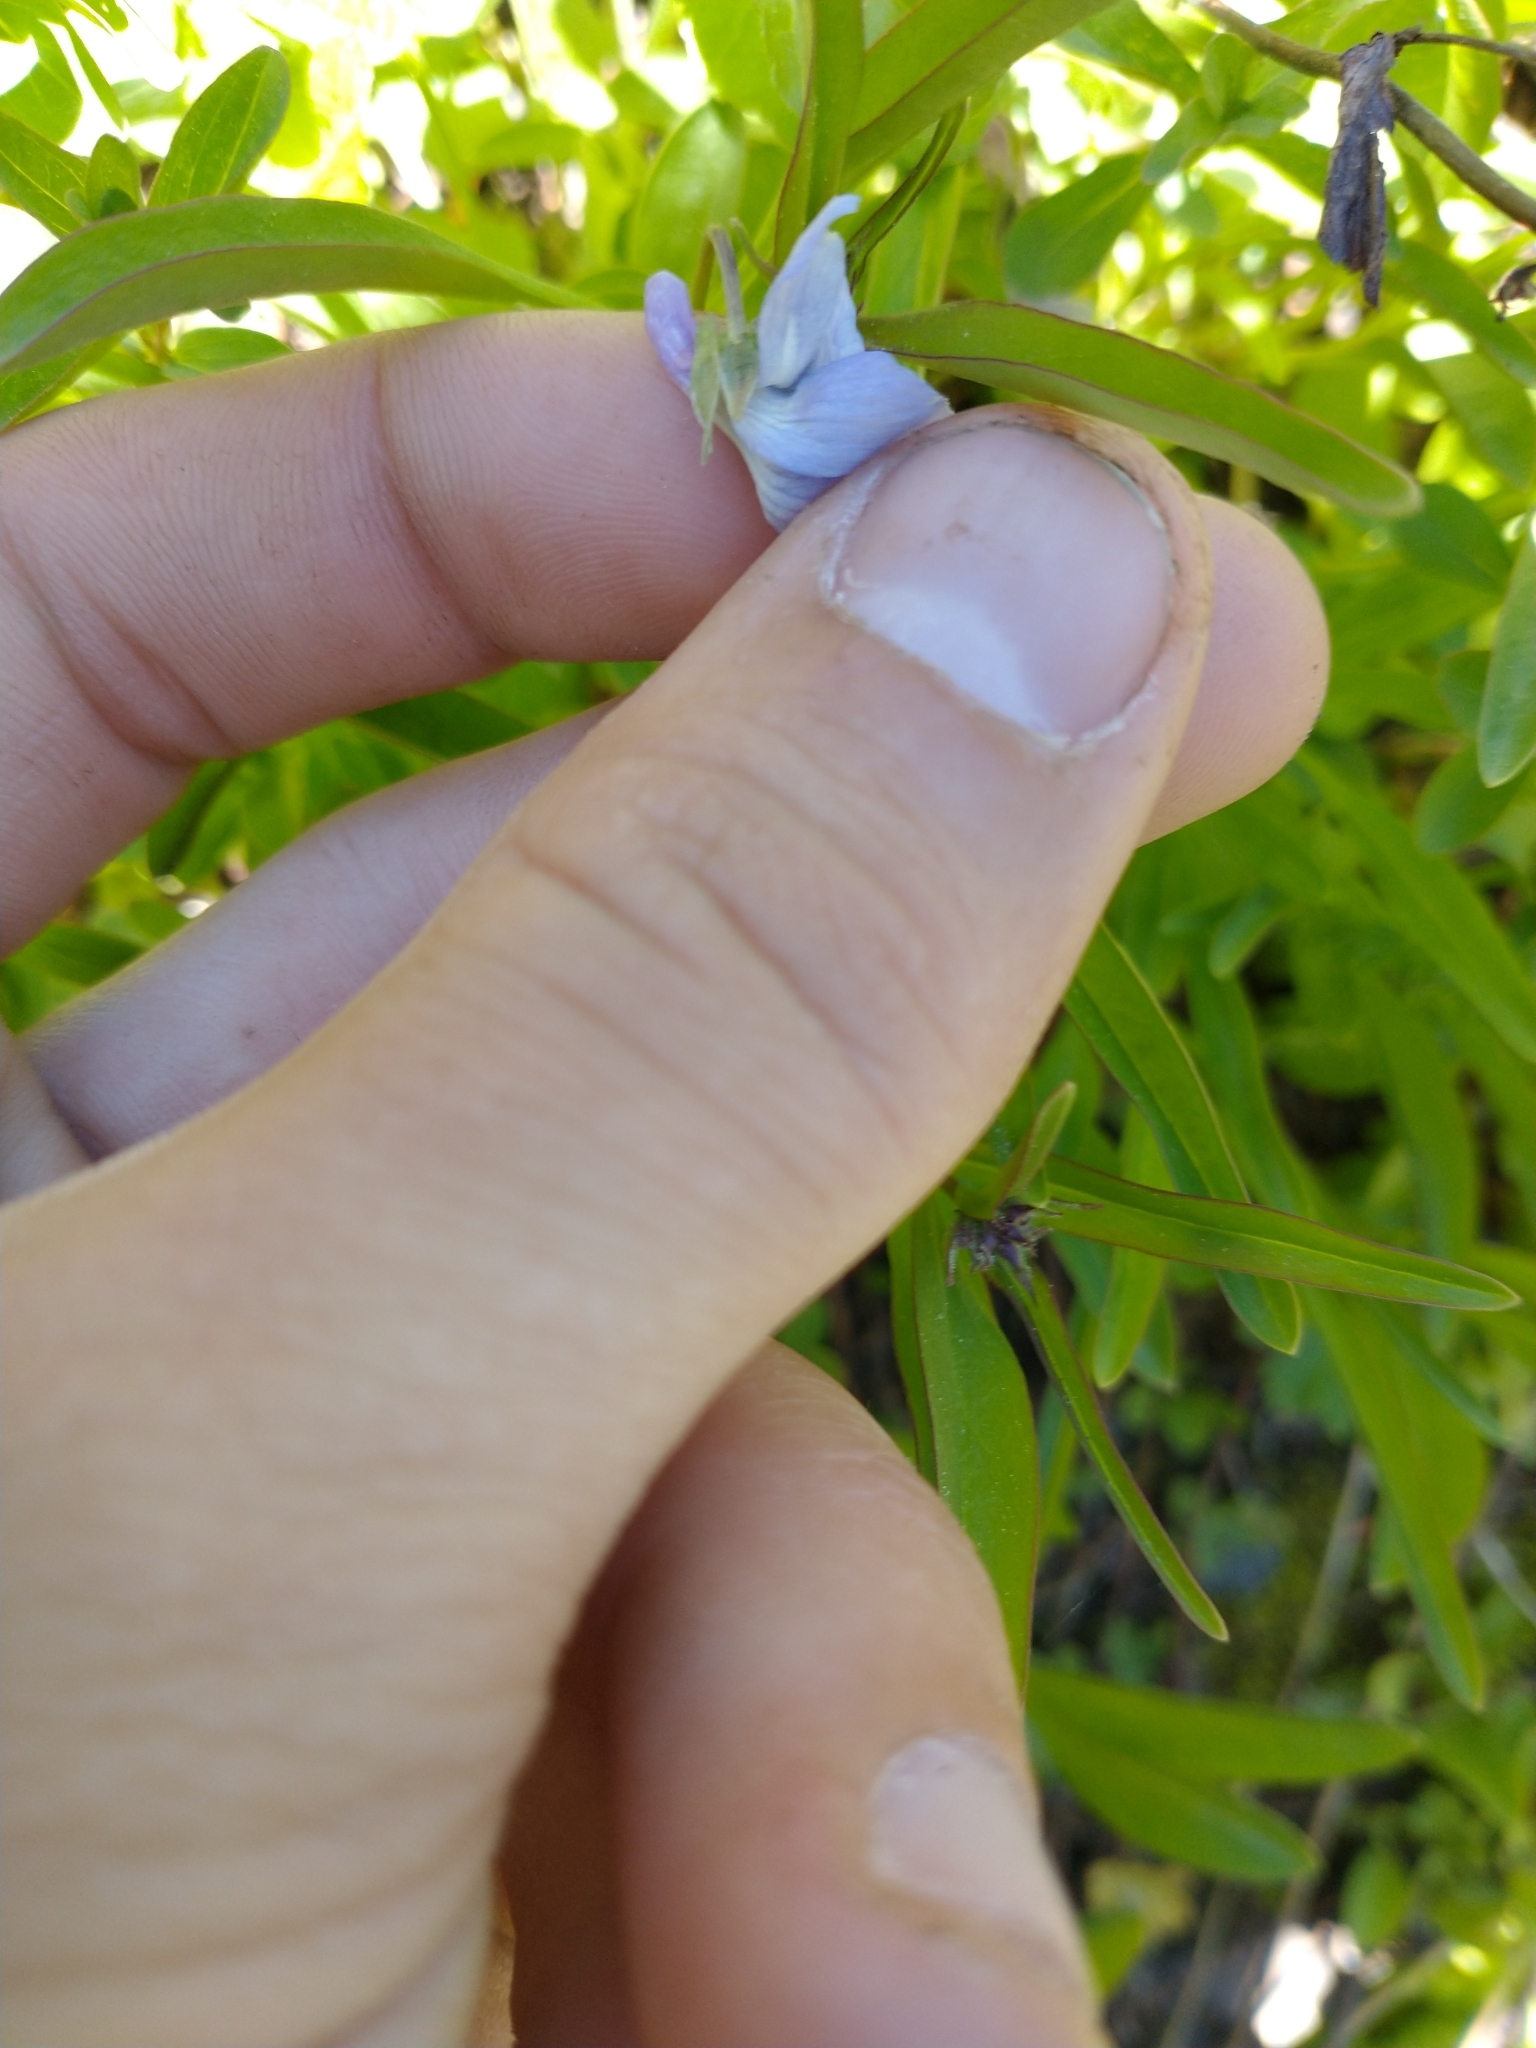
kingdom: Plantae
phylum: Tracheophyta
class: Magnoliopsida
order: Malpighiales
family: Violaceae
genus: Viola
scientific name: Viola adunca
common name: Sand violet
